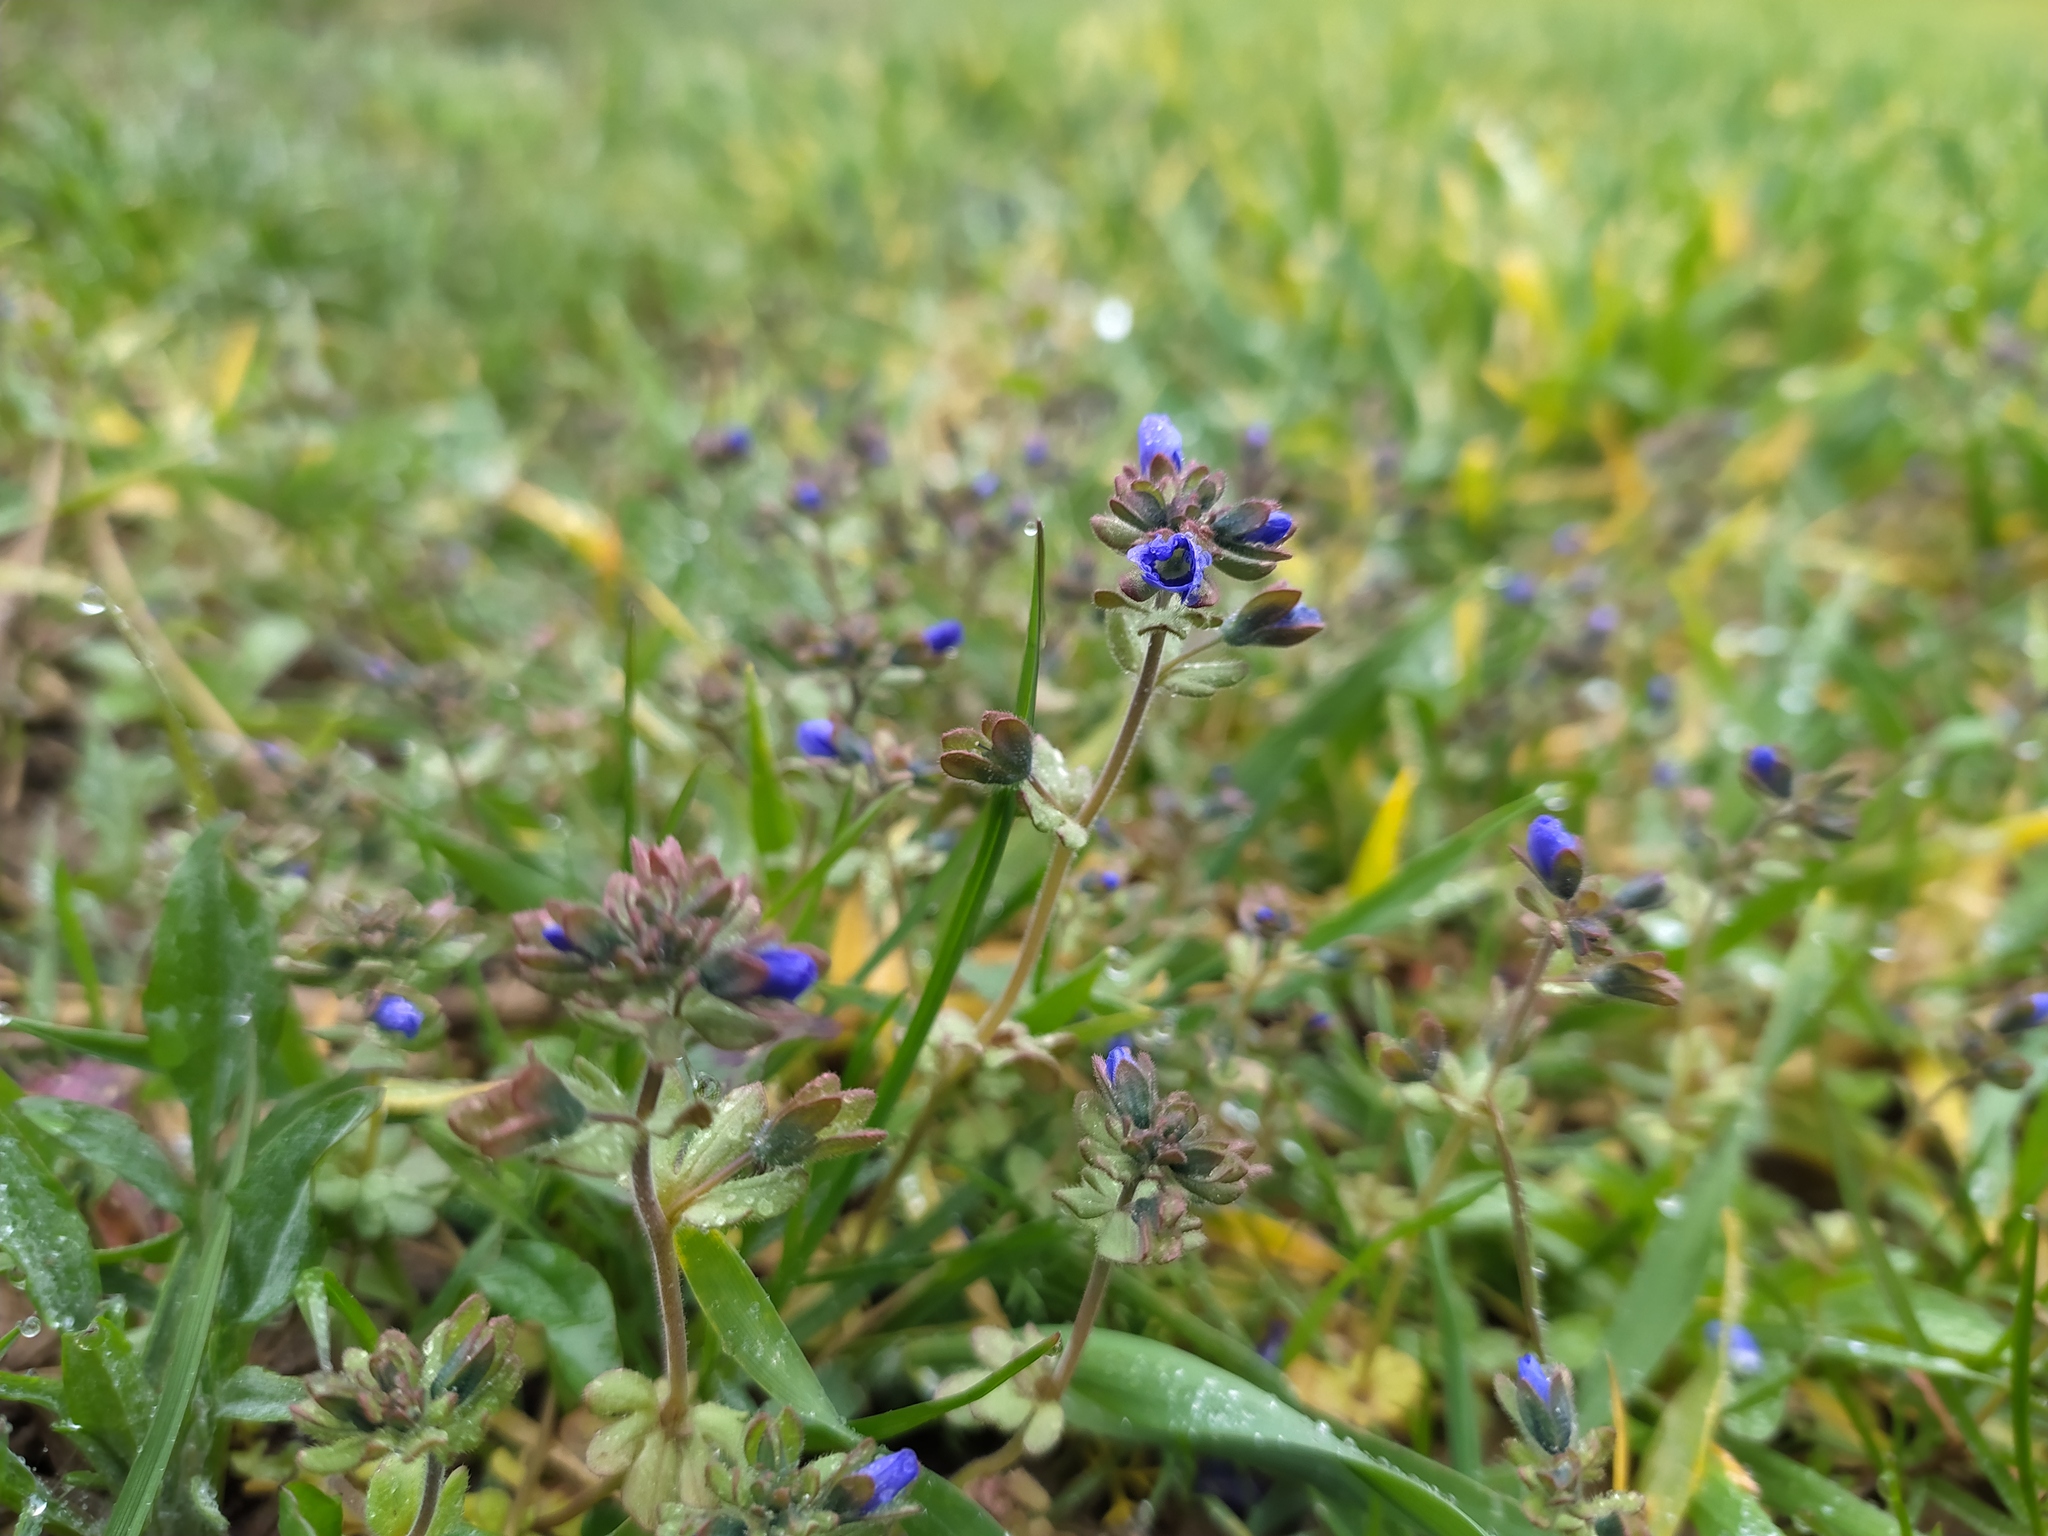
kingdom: Plantae
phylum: Tracheophyta
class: Magnoliopsida
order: Lamiales
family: Plantaginaceae
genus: Veronica
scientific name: Veronica triphyllos
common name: Fingered speedwell
